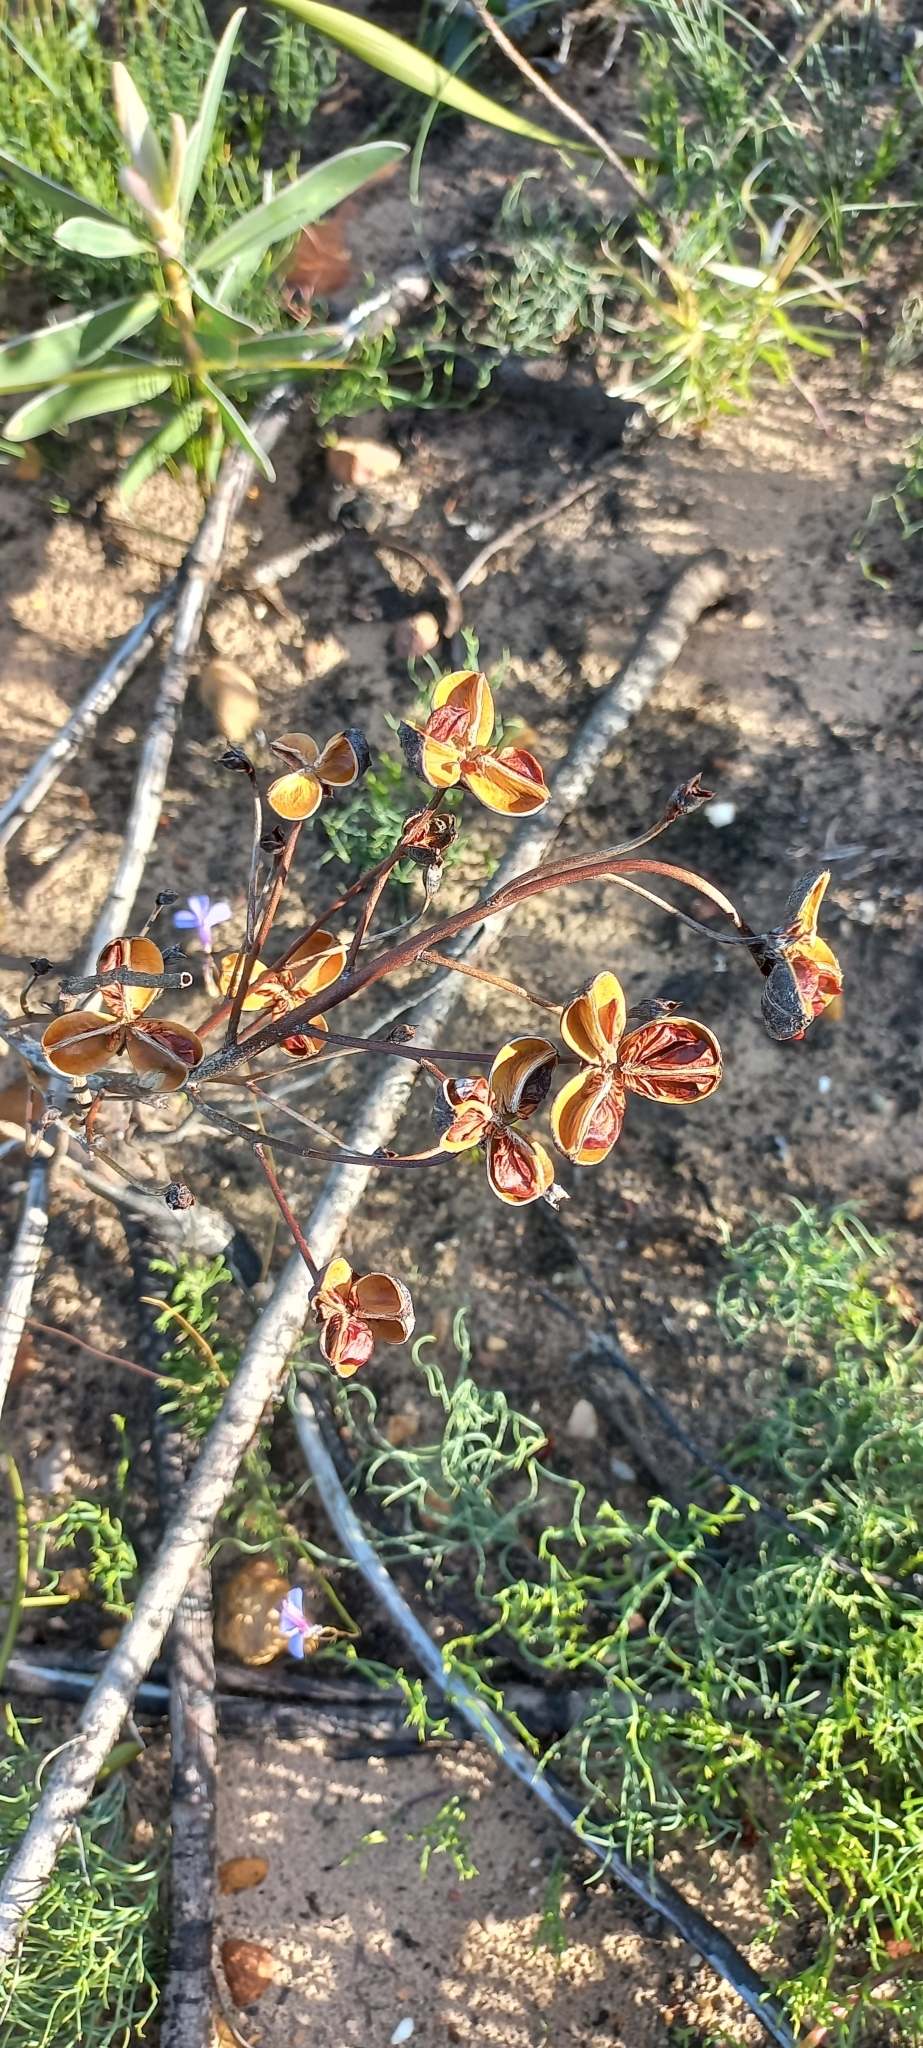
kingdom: Plantae
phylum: Tracheophyta
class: Liliopsida
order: Asparagales
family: Iridaceae
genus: Pillansia
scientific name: Pillansia templemannii
